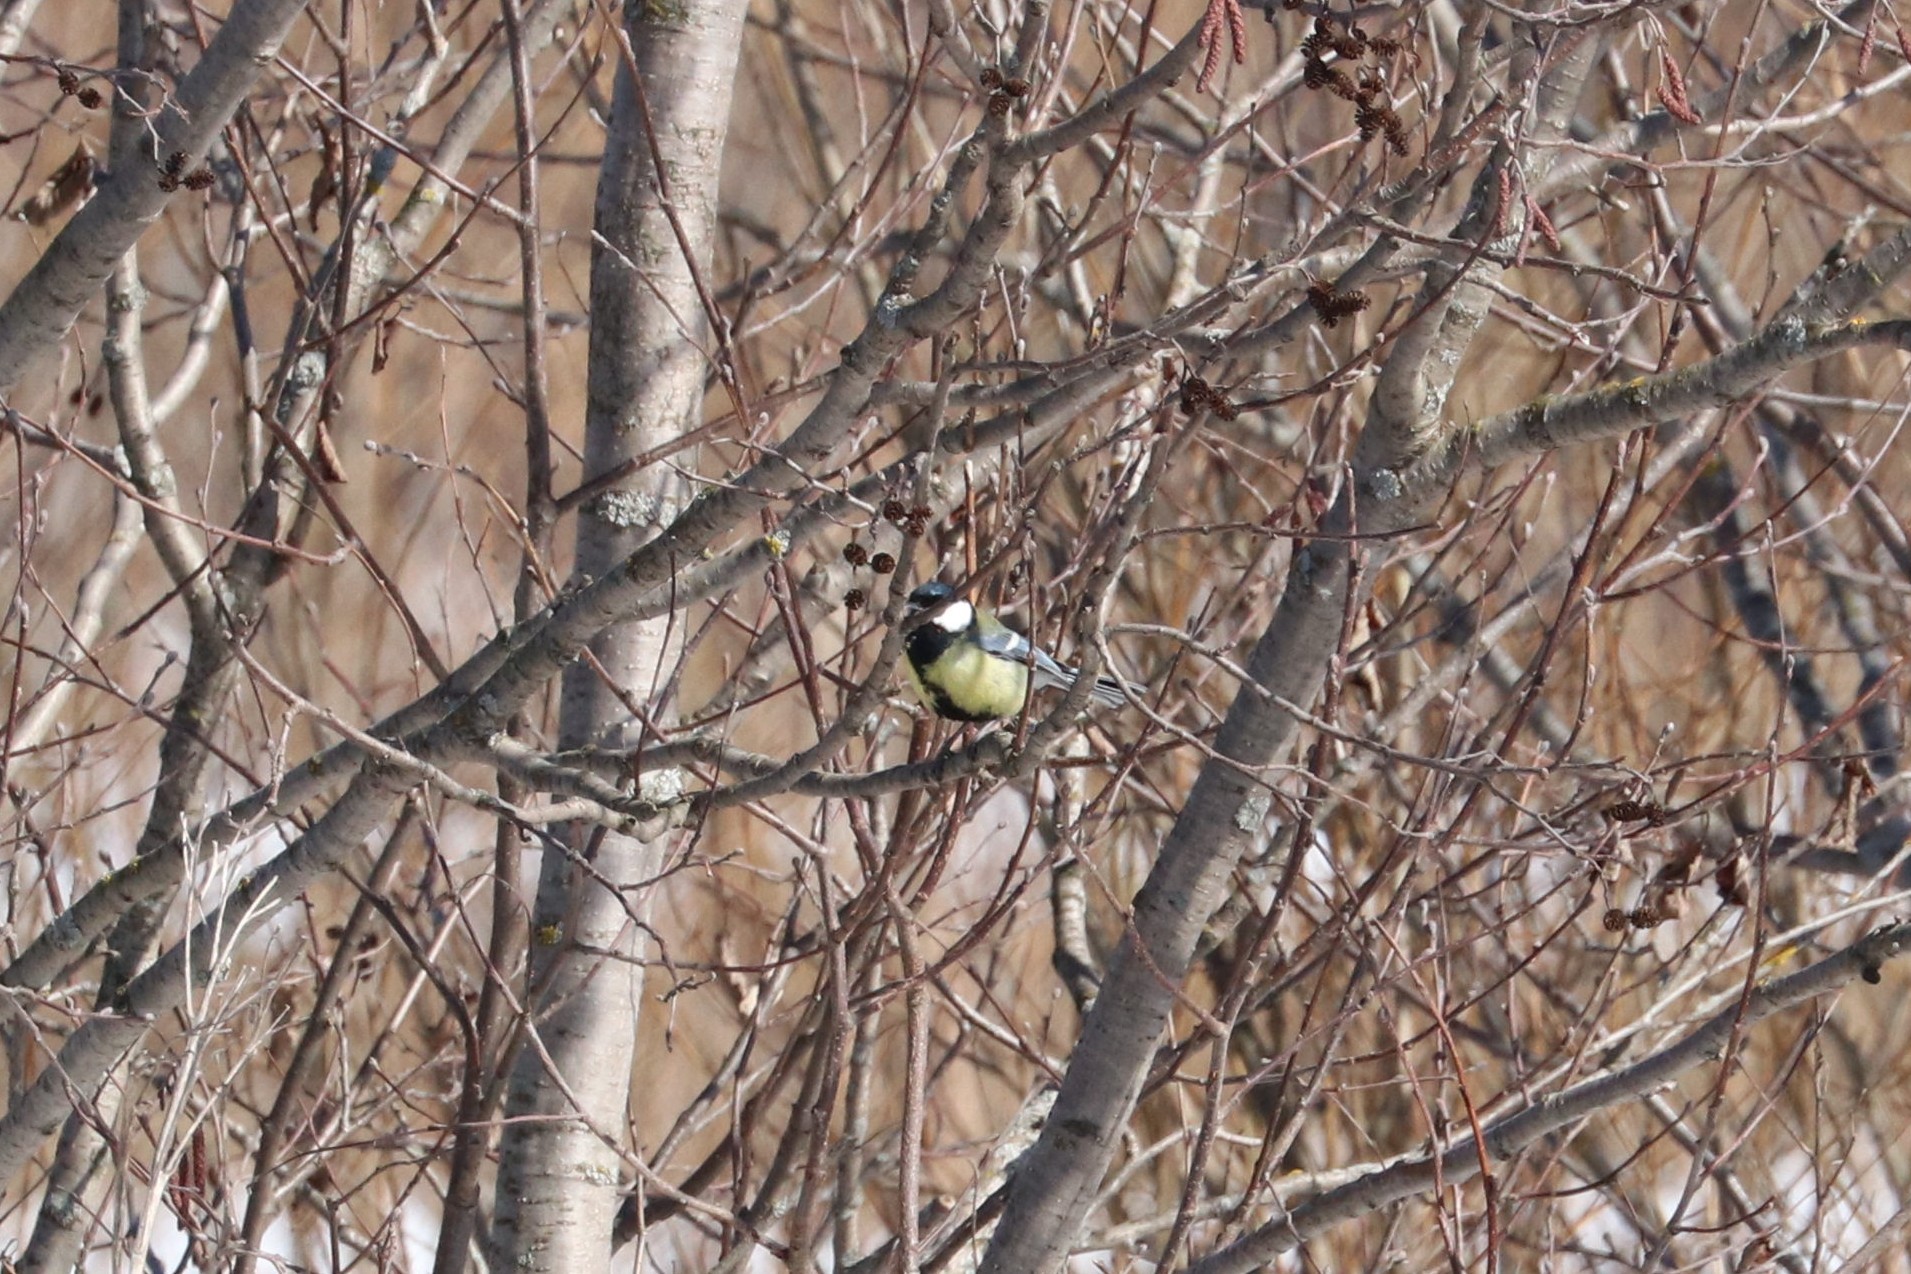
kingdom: Animalia
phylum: Chordata
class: Aves
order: Passeriformes
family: Paridae
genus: Parus
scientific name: Parus major
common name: Great tit
